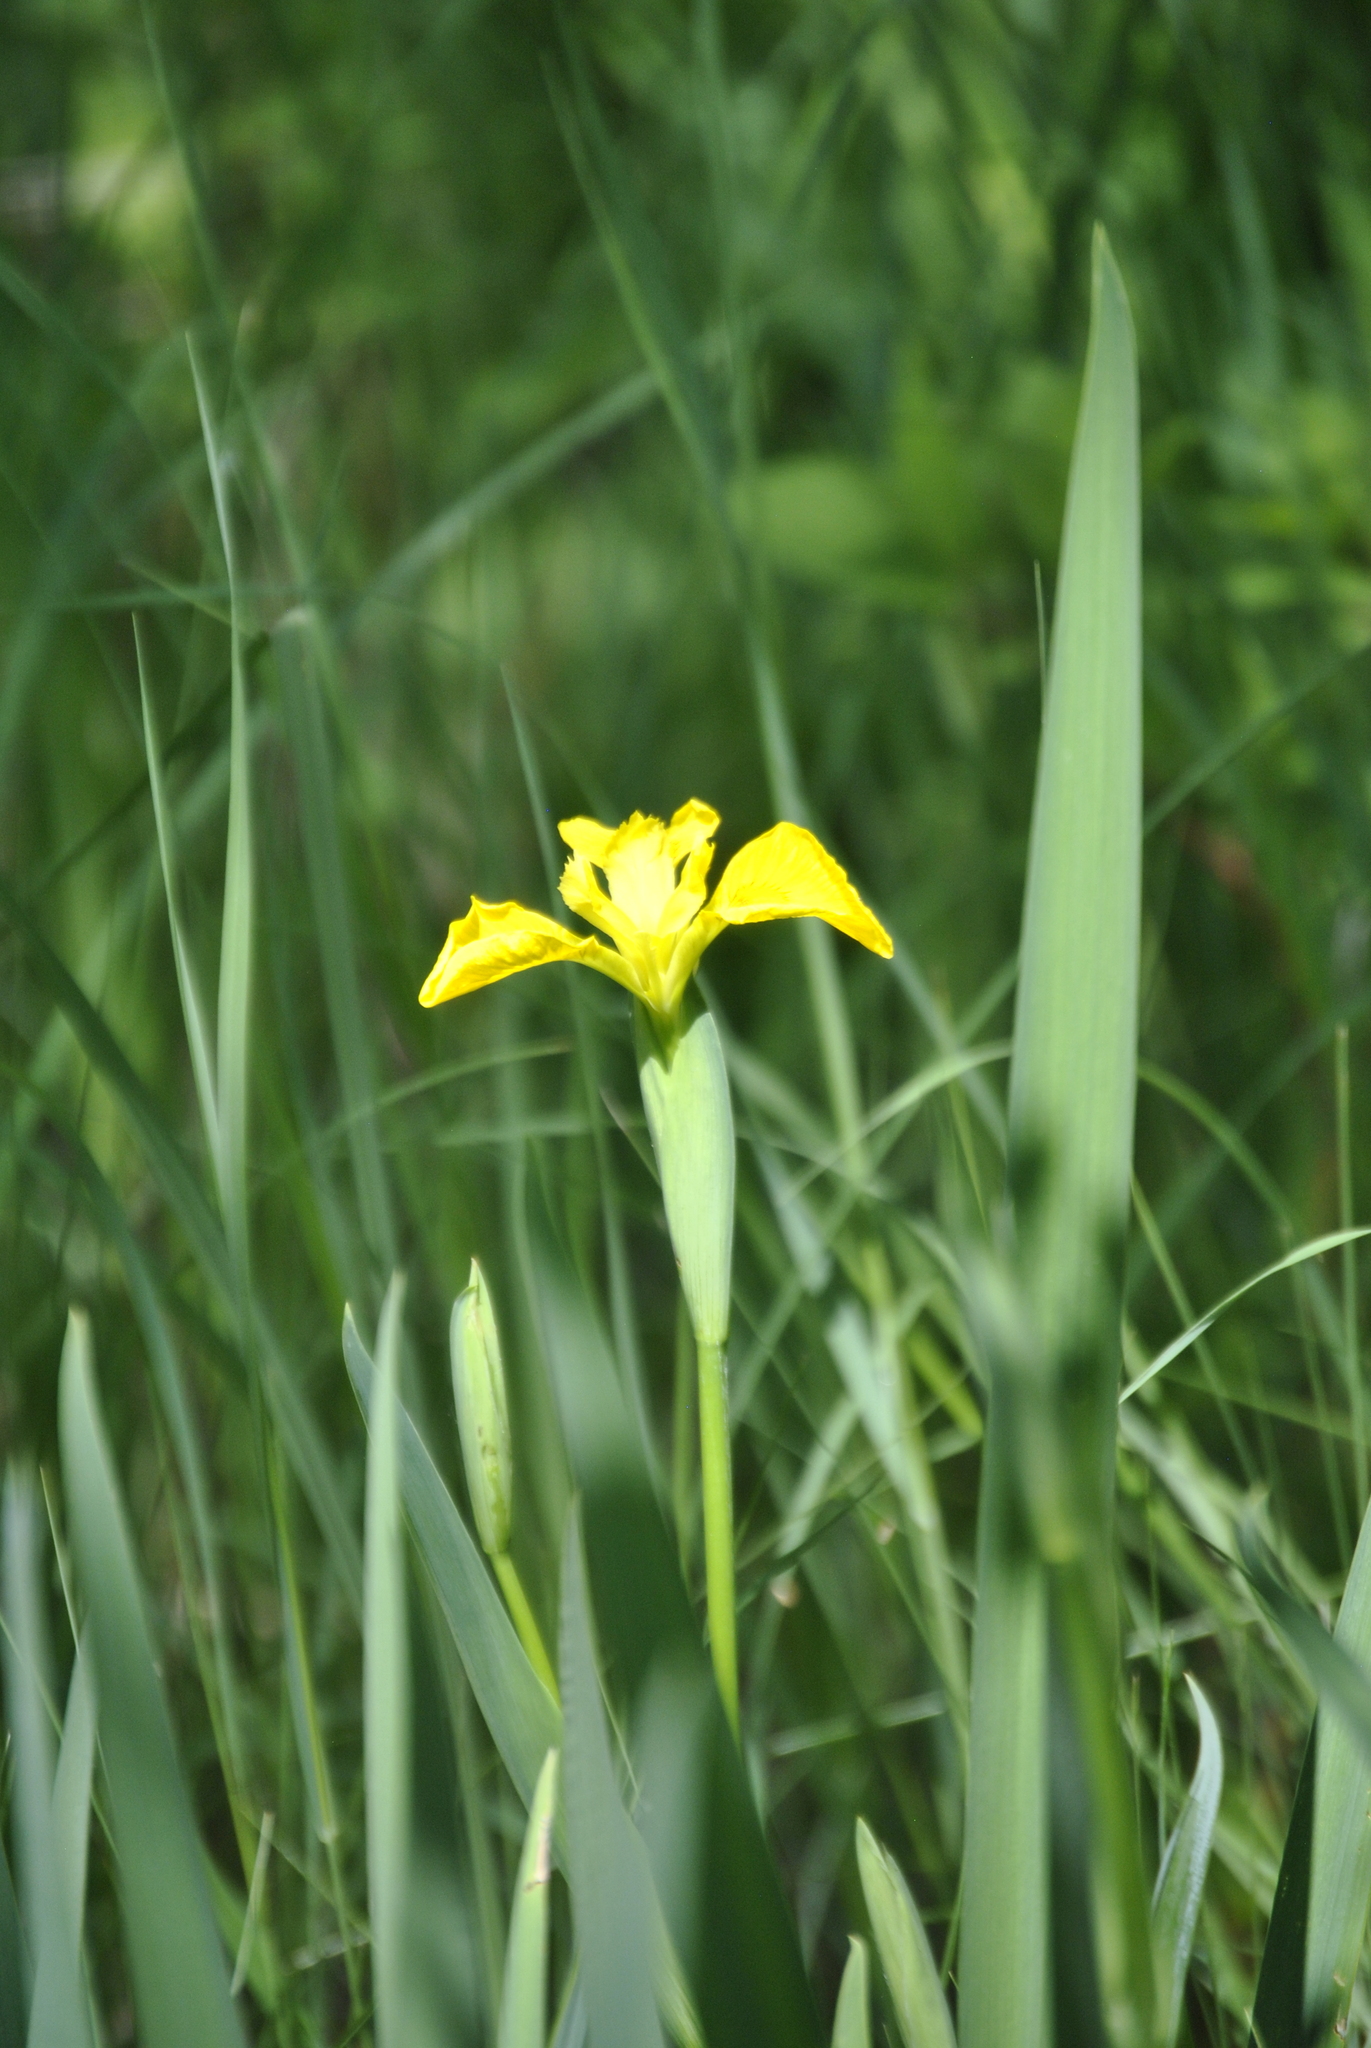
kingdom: Plantae
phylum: Tracheophyta
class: Liliopsida
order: Asparagales
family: Iridaceae
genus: Iris
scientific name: Iris pseudacorus
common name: Yellow flag
